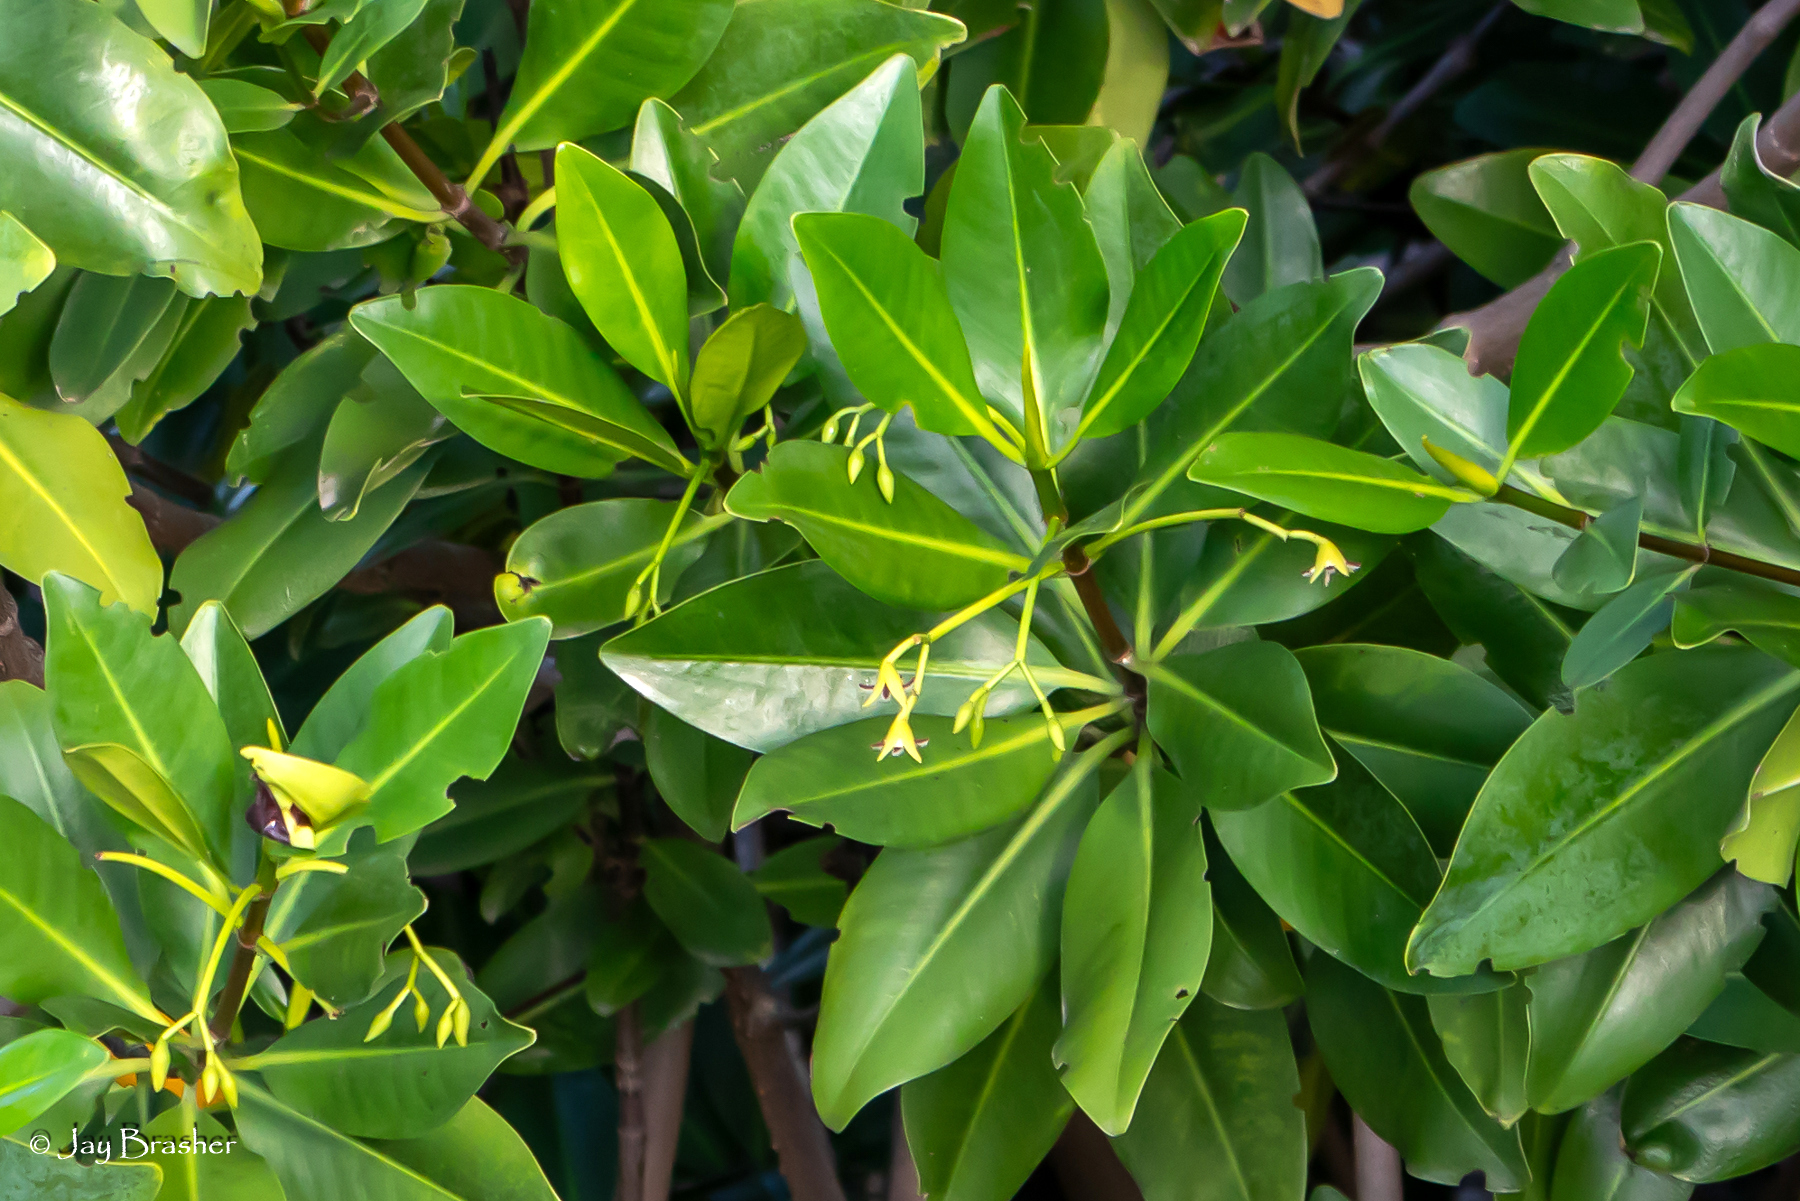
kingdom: Plantae
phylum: Tracheophyta
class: Magnoliopsida
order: Malpighiales
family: Rhizophoraceae
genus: Rhizophora
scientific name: Rhizophora mangle
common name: Red mangrove
